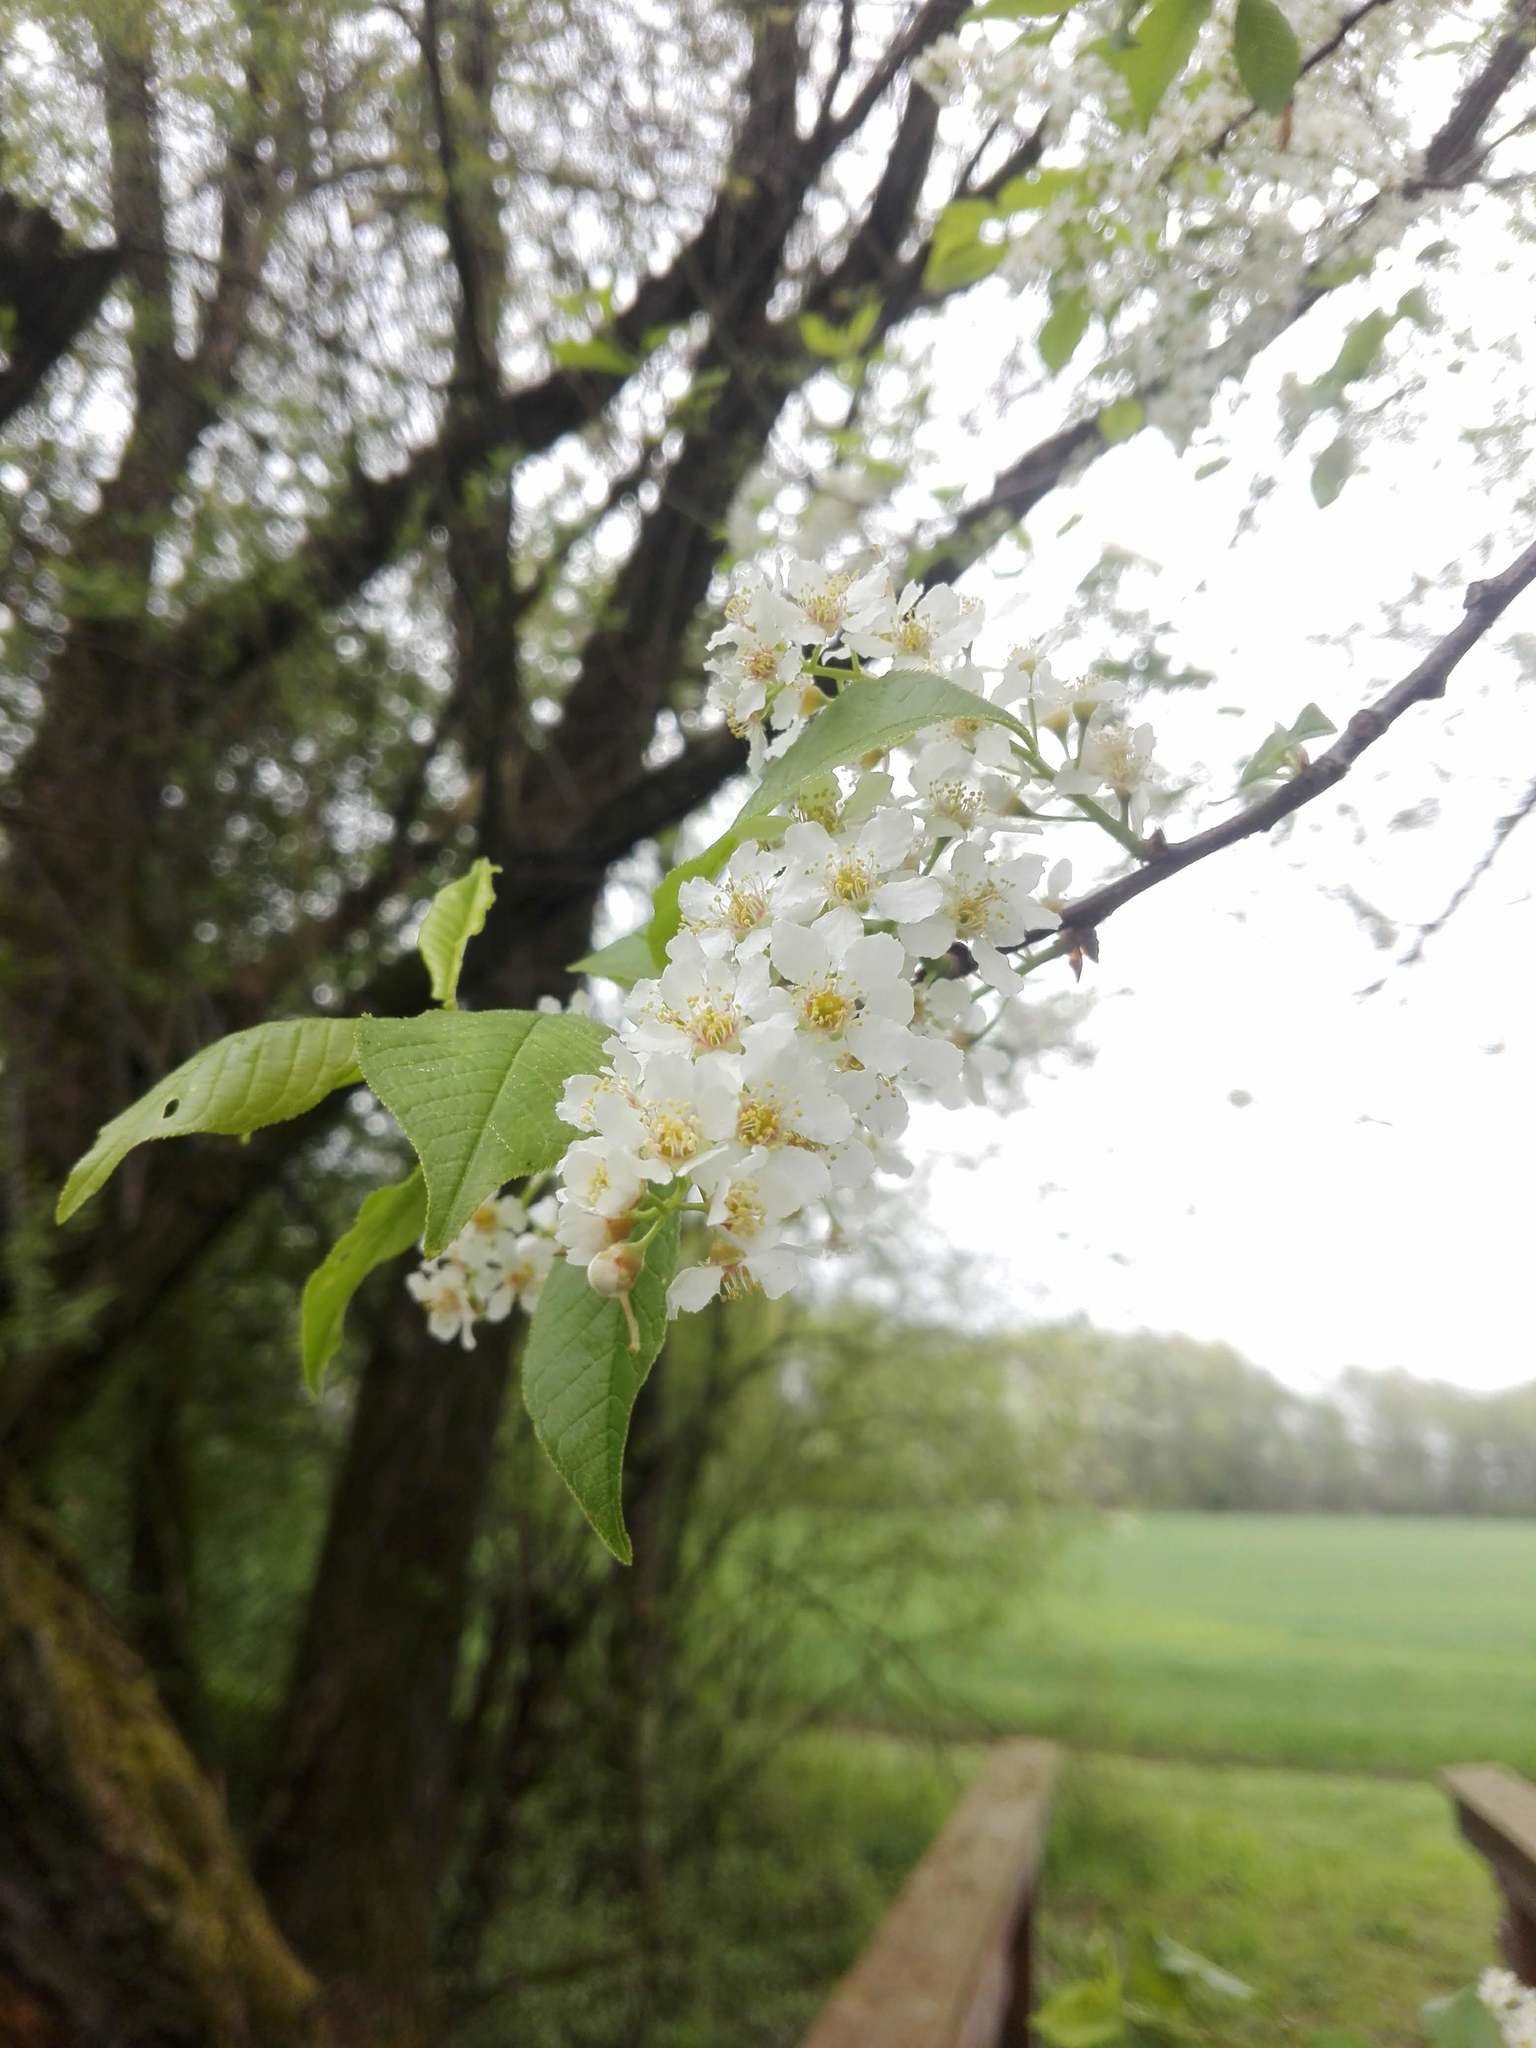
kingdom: Plantae
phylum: Tracheophyta
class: Magnoliopsida
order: Rosales
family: Rosaceae
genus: Prunus
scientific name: Prunus padus
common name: Bird cherry
